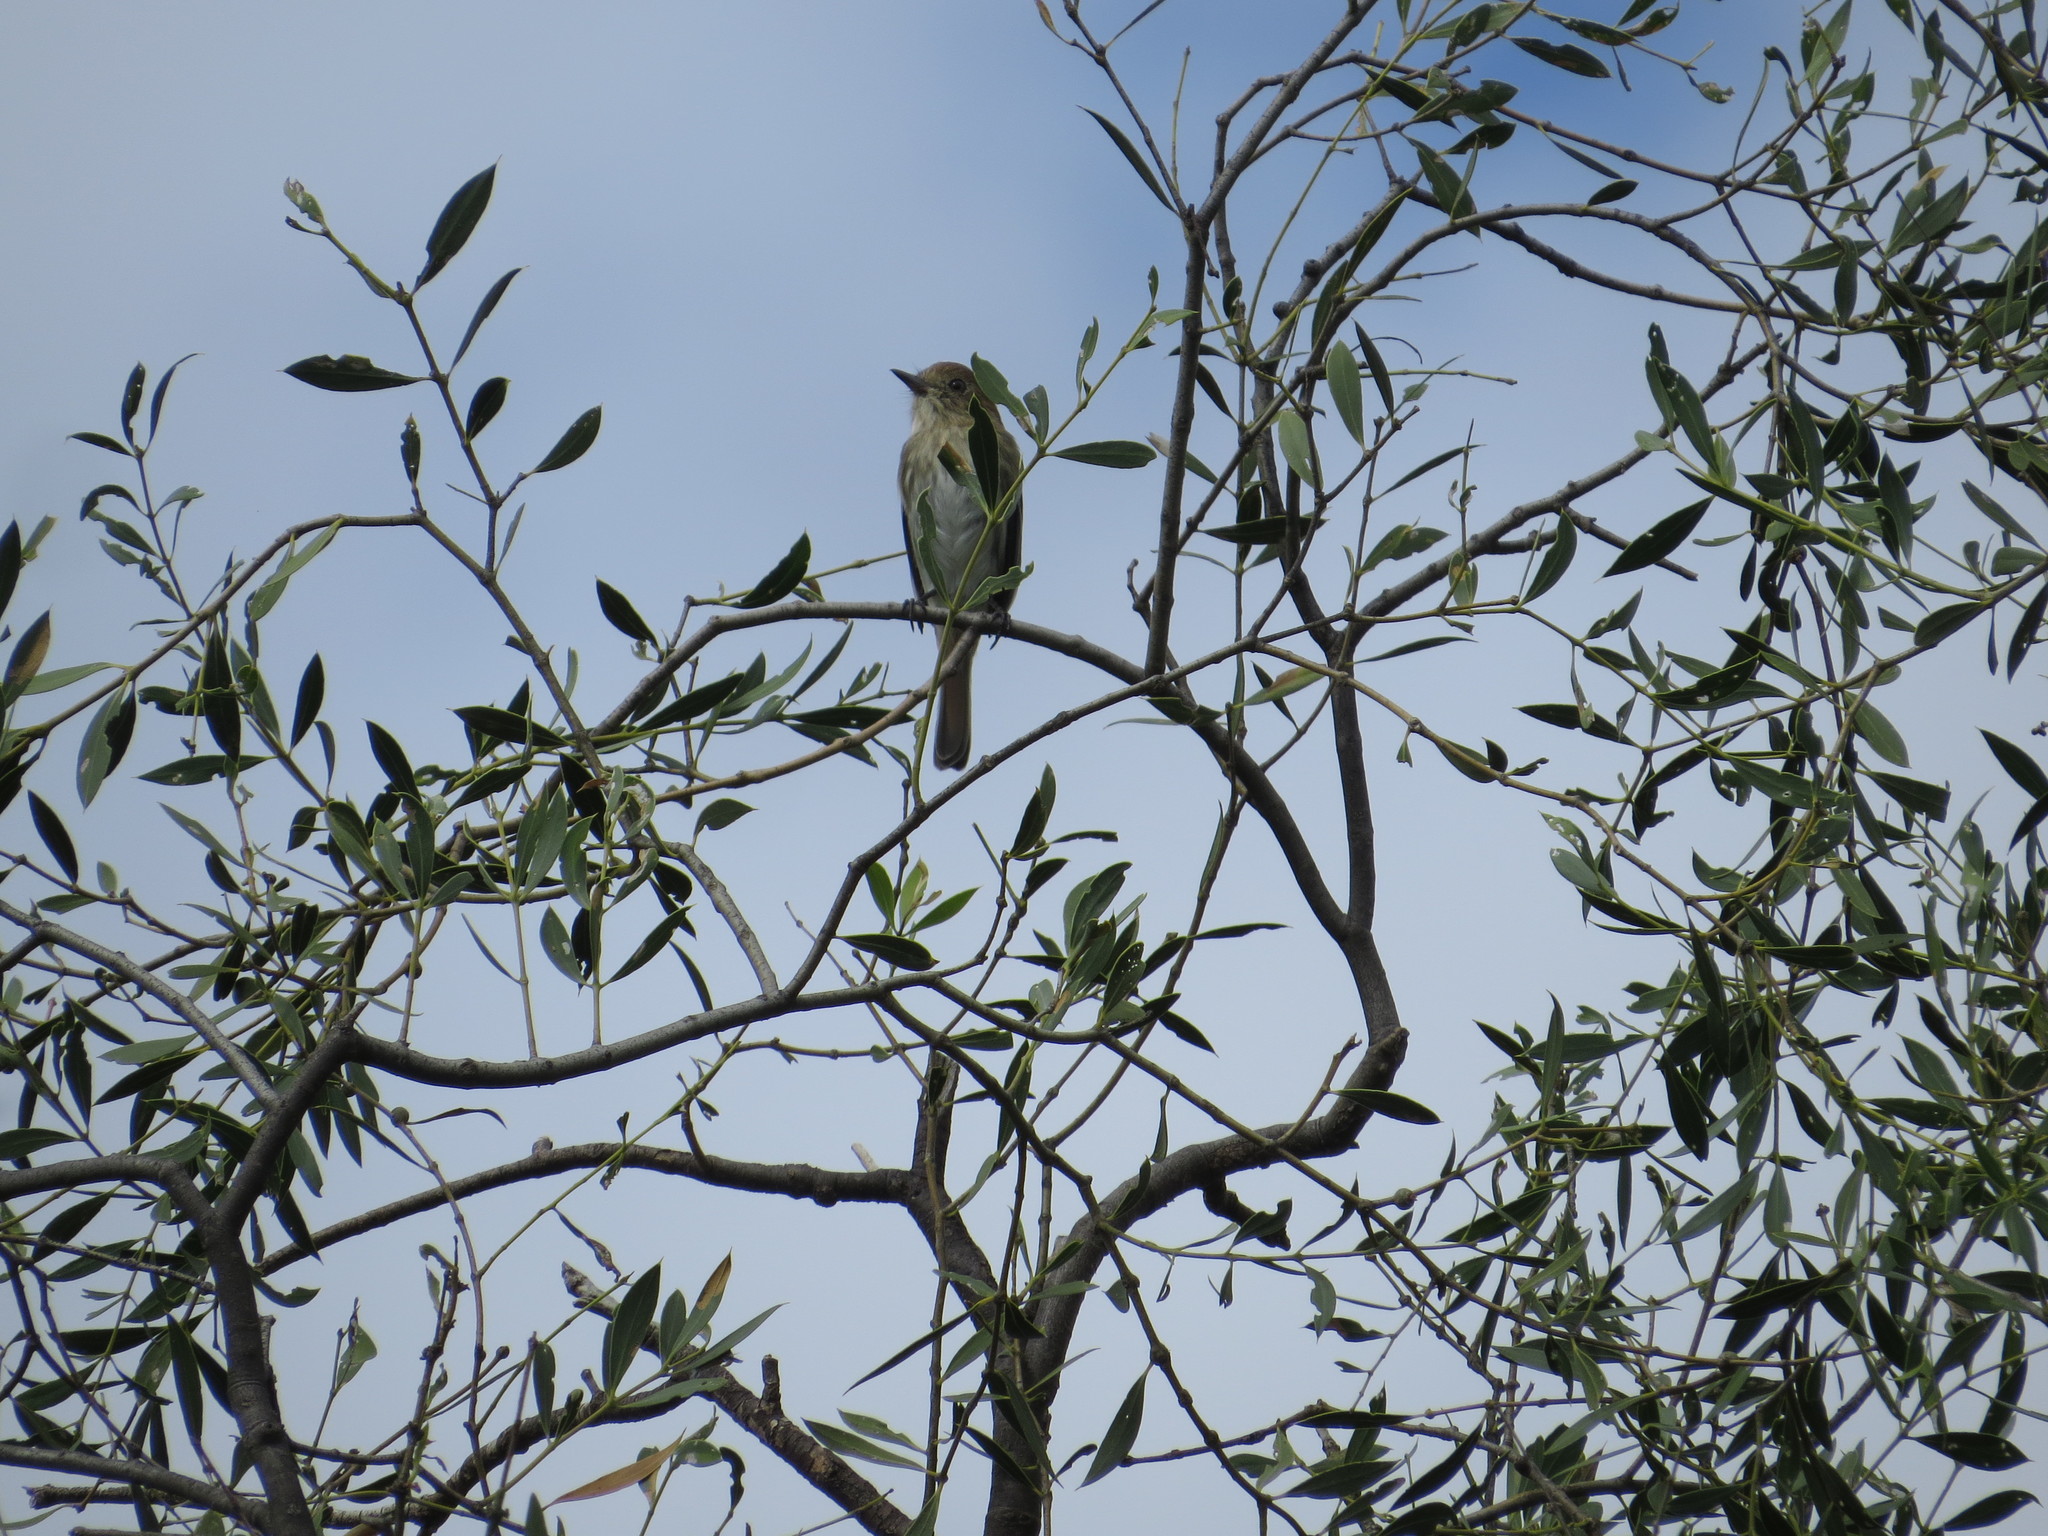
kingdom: Animalia
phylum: Chordata
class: Aves
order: Passeriformes
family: Tyrannidae
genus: Myiophobus
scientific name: Myiophobus fasciatus
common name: Bran-colored flycatcher
